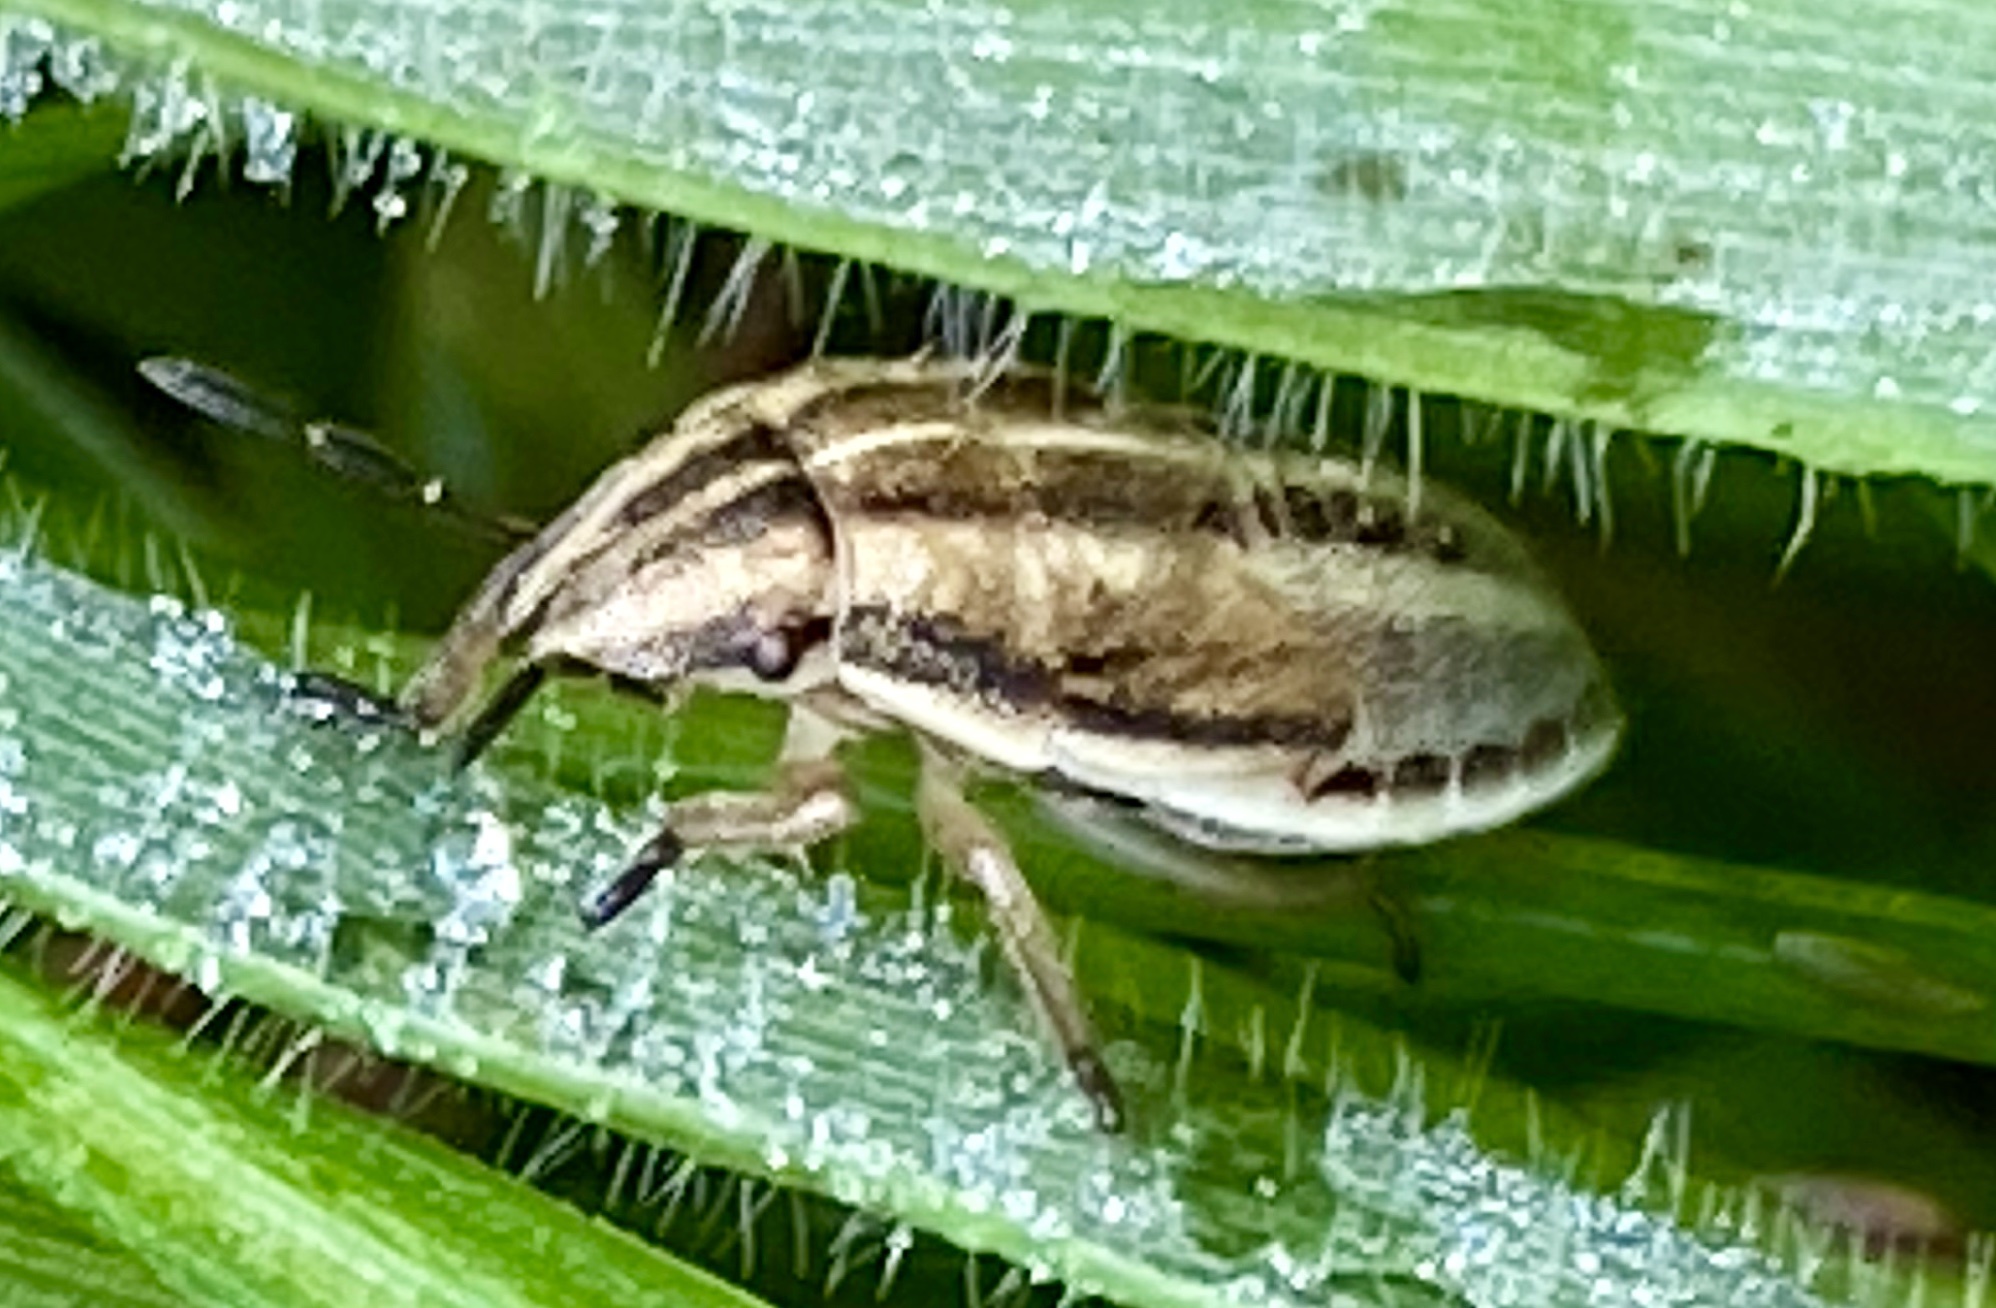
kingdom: Animalia
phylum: Arthropoda
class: Insecta
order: Hemiptera
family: Pentatomidae
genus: Aelia
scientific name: Aelia acuminata
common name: Bishop's mitre
